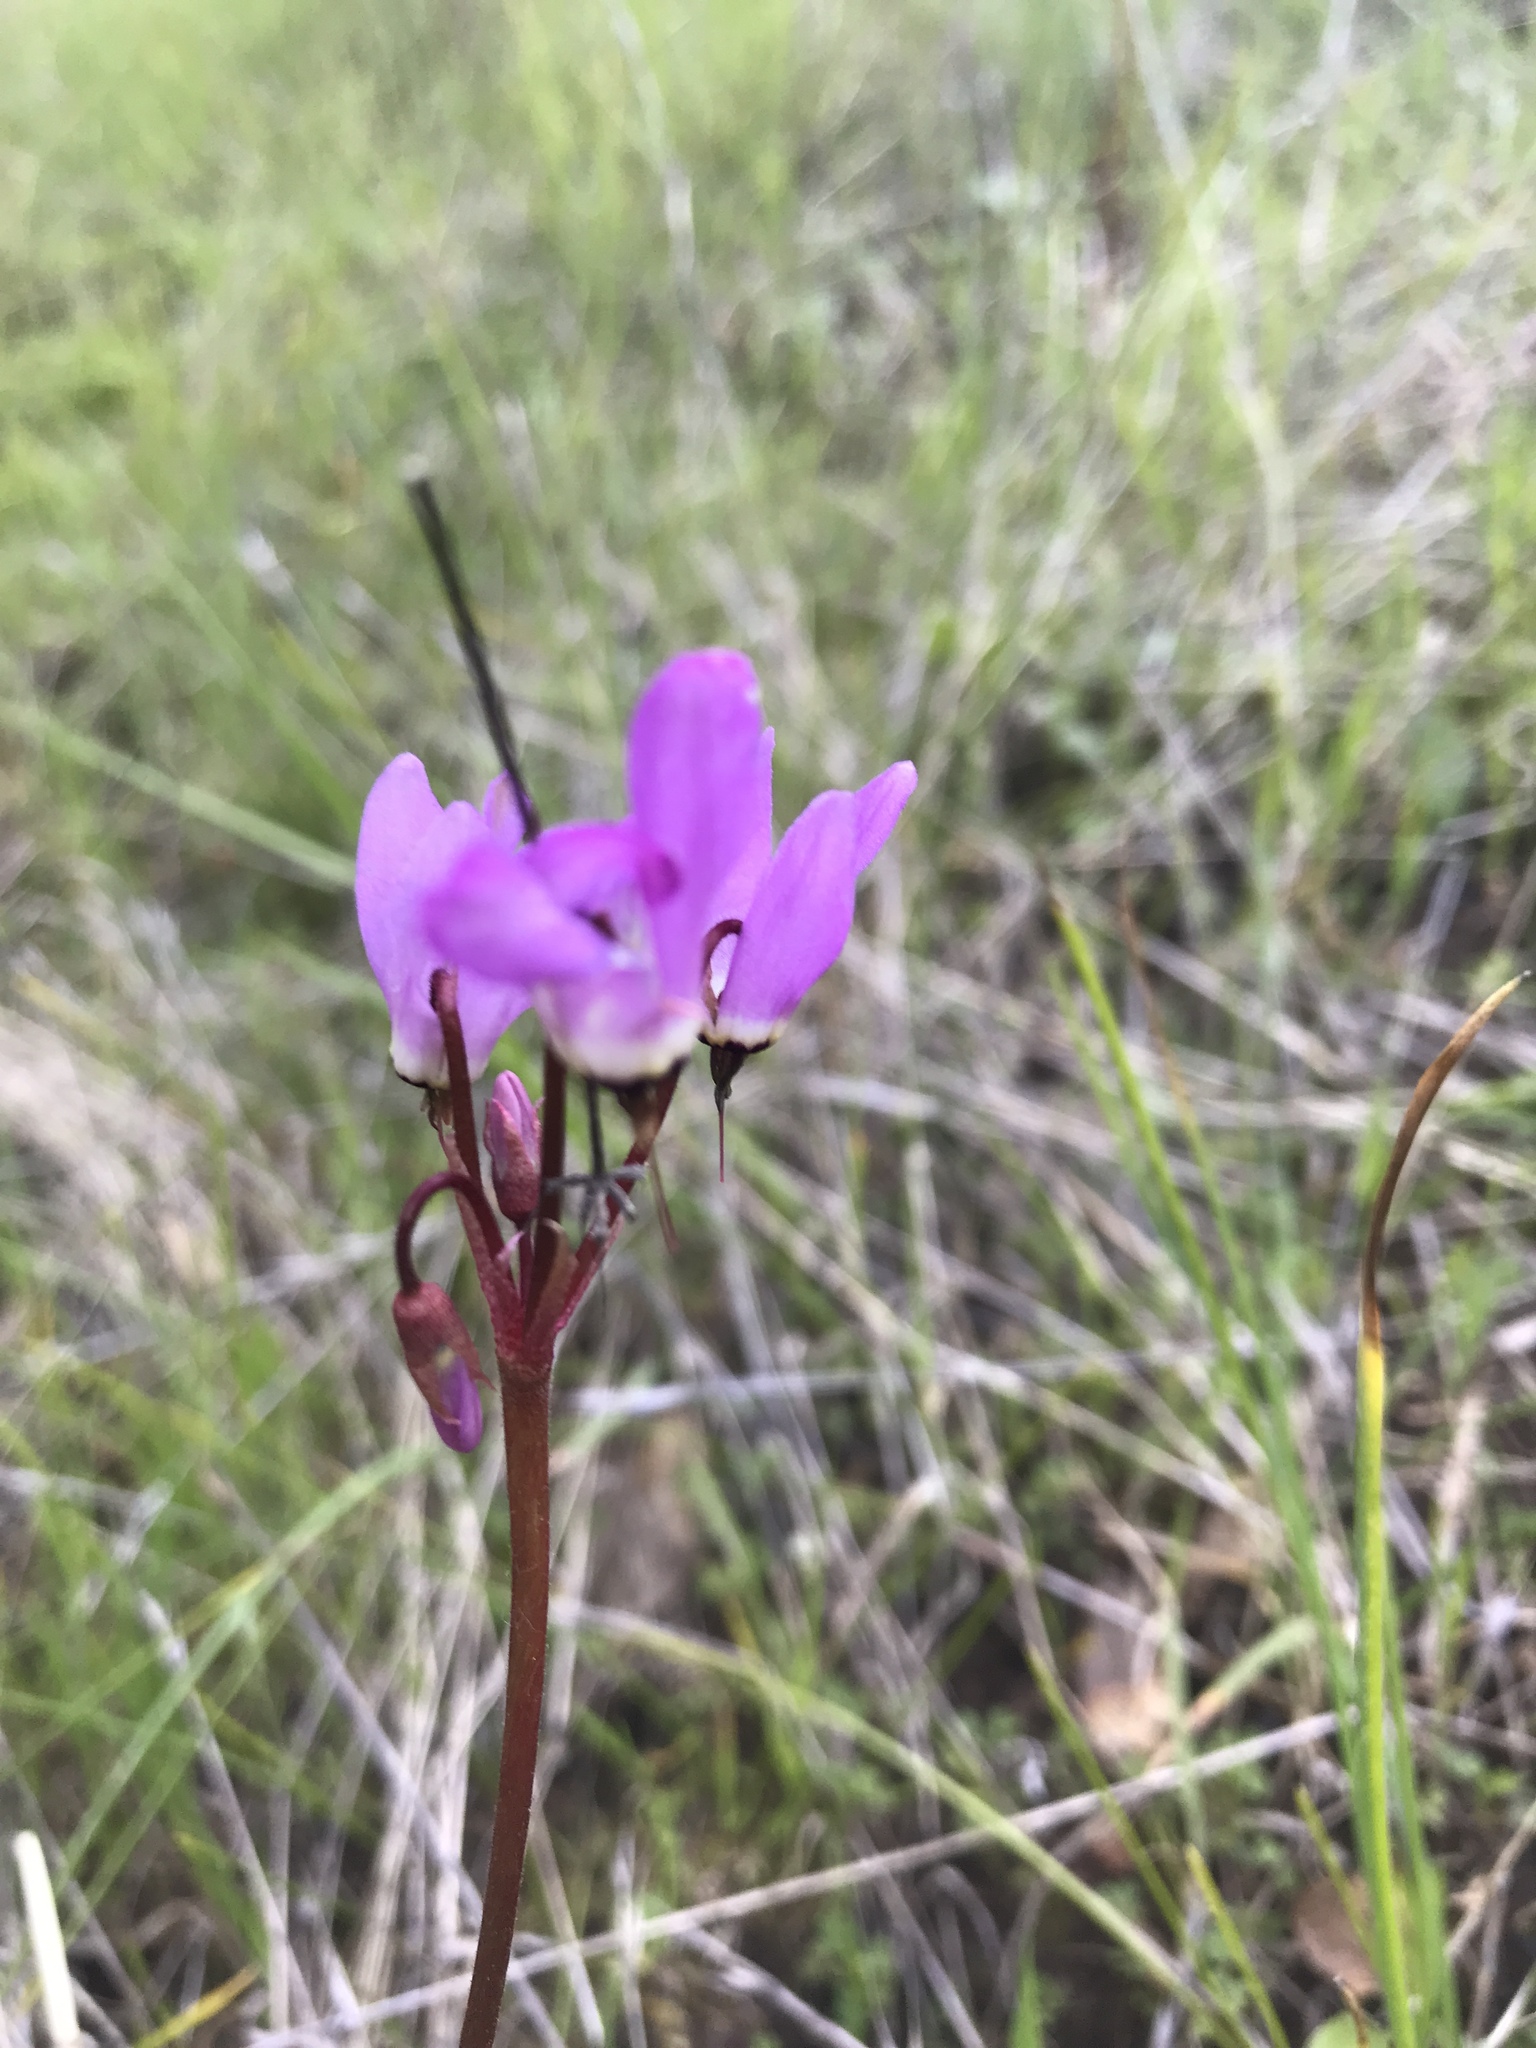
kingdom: Plantae
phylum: Tracheophyta
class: Magnoliopsida
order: Ericales
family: Primulaceae
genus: Dodecatheon
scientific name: Dodecatheon hendersonii
